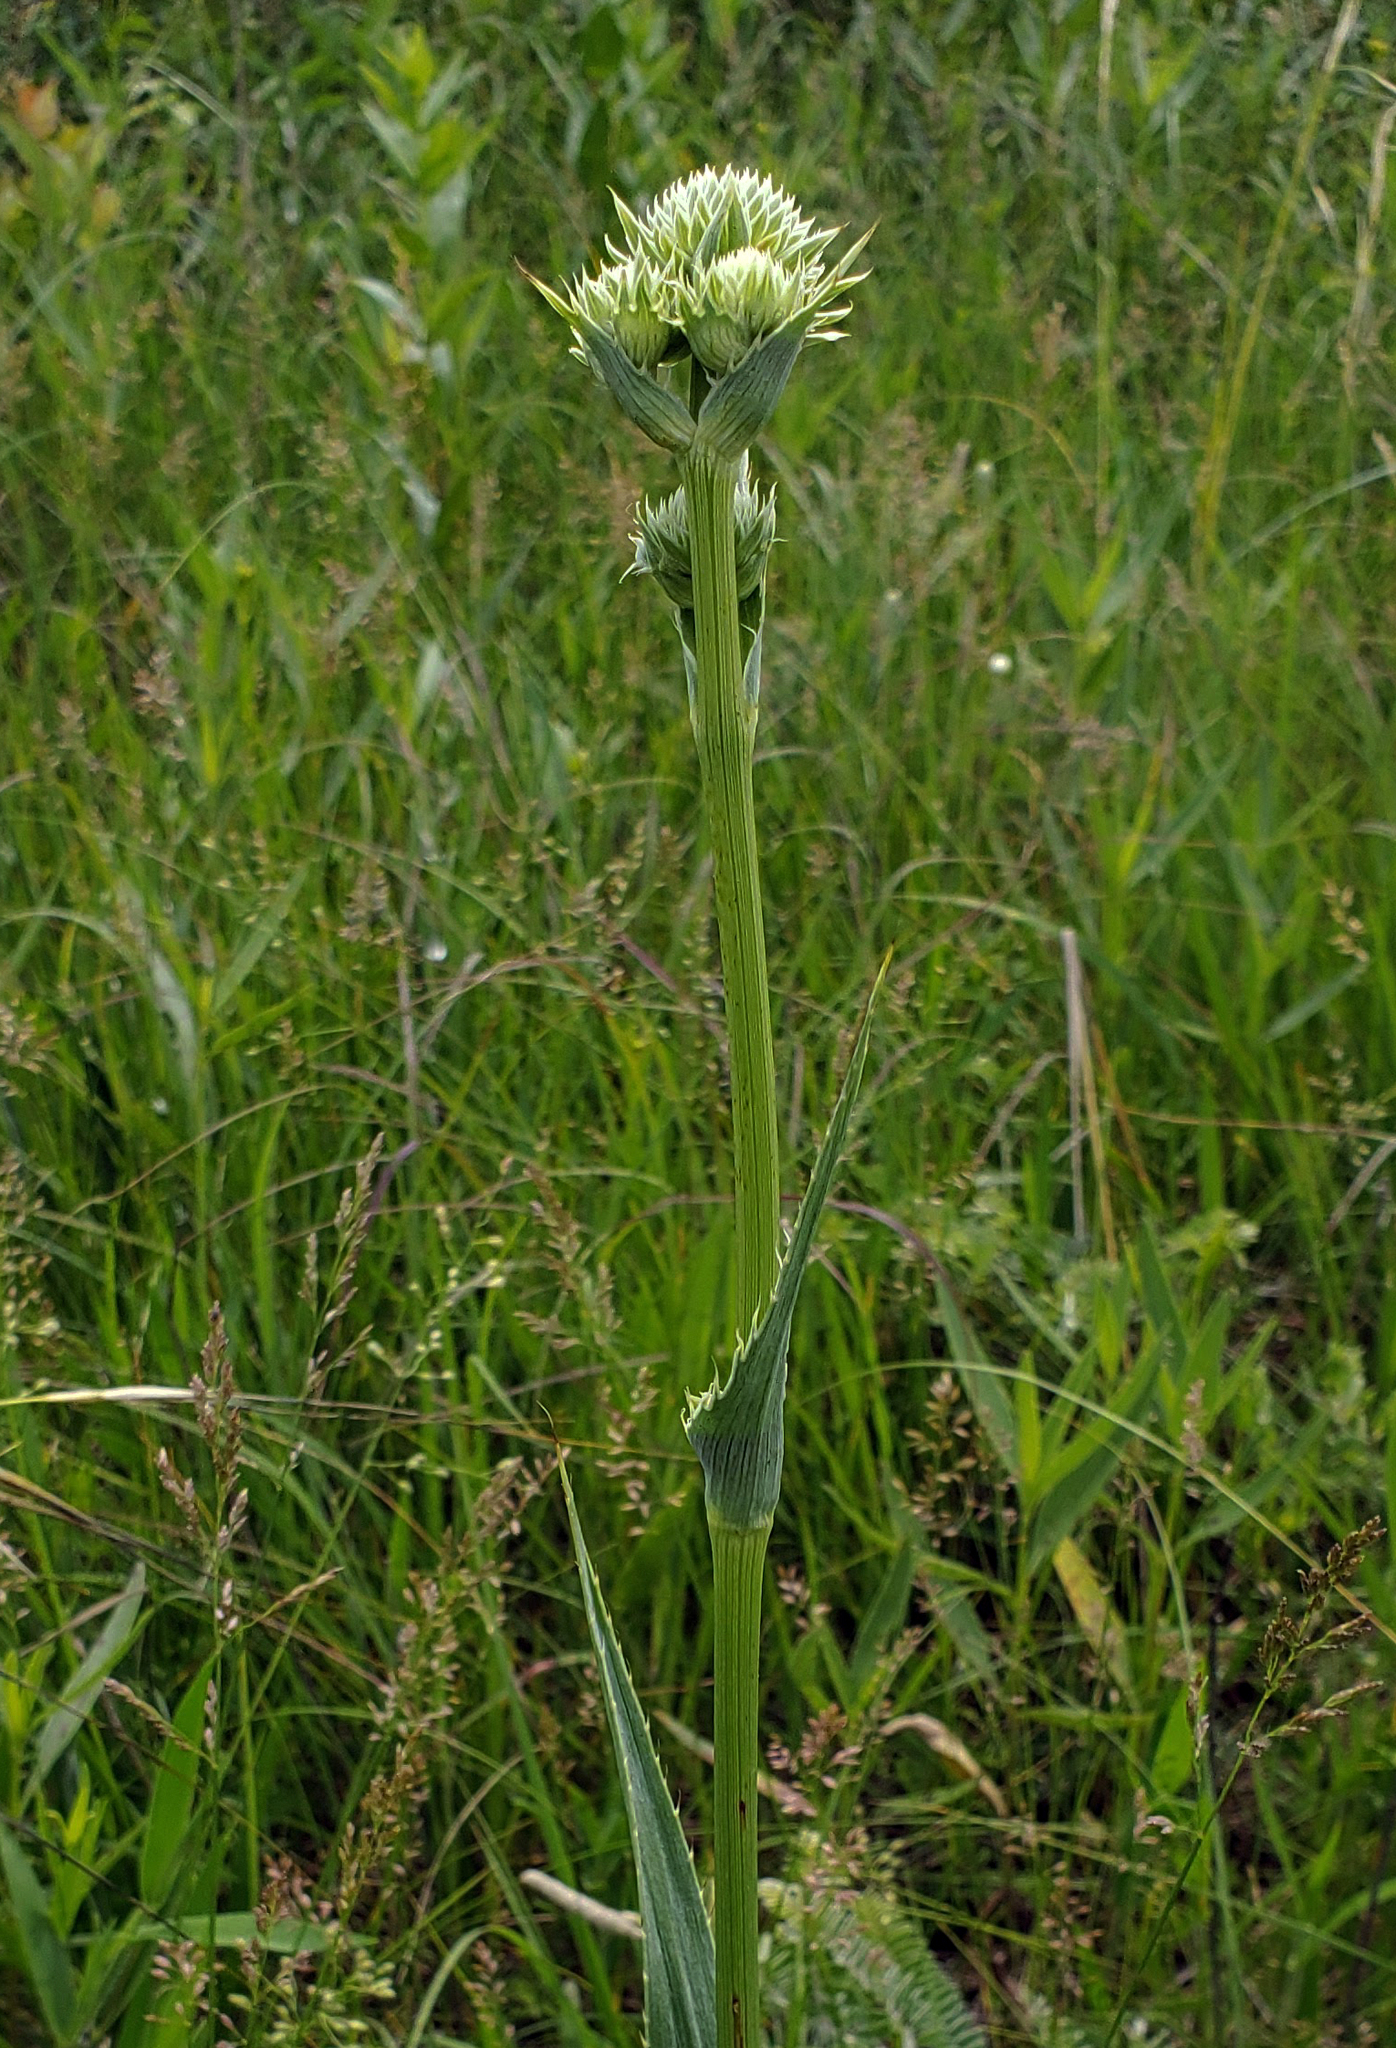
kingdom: Plantae
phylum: Tracheophyta
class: Magnoliopsida
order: Apiales
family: Apiaceae
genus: Eryngium
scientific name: Eryngium yuccifolium
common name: Button eryngo
